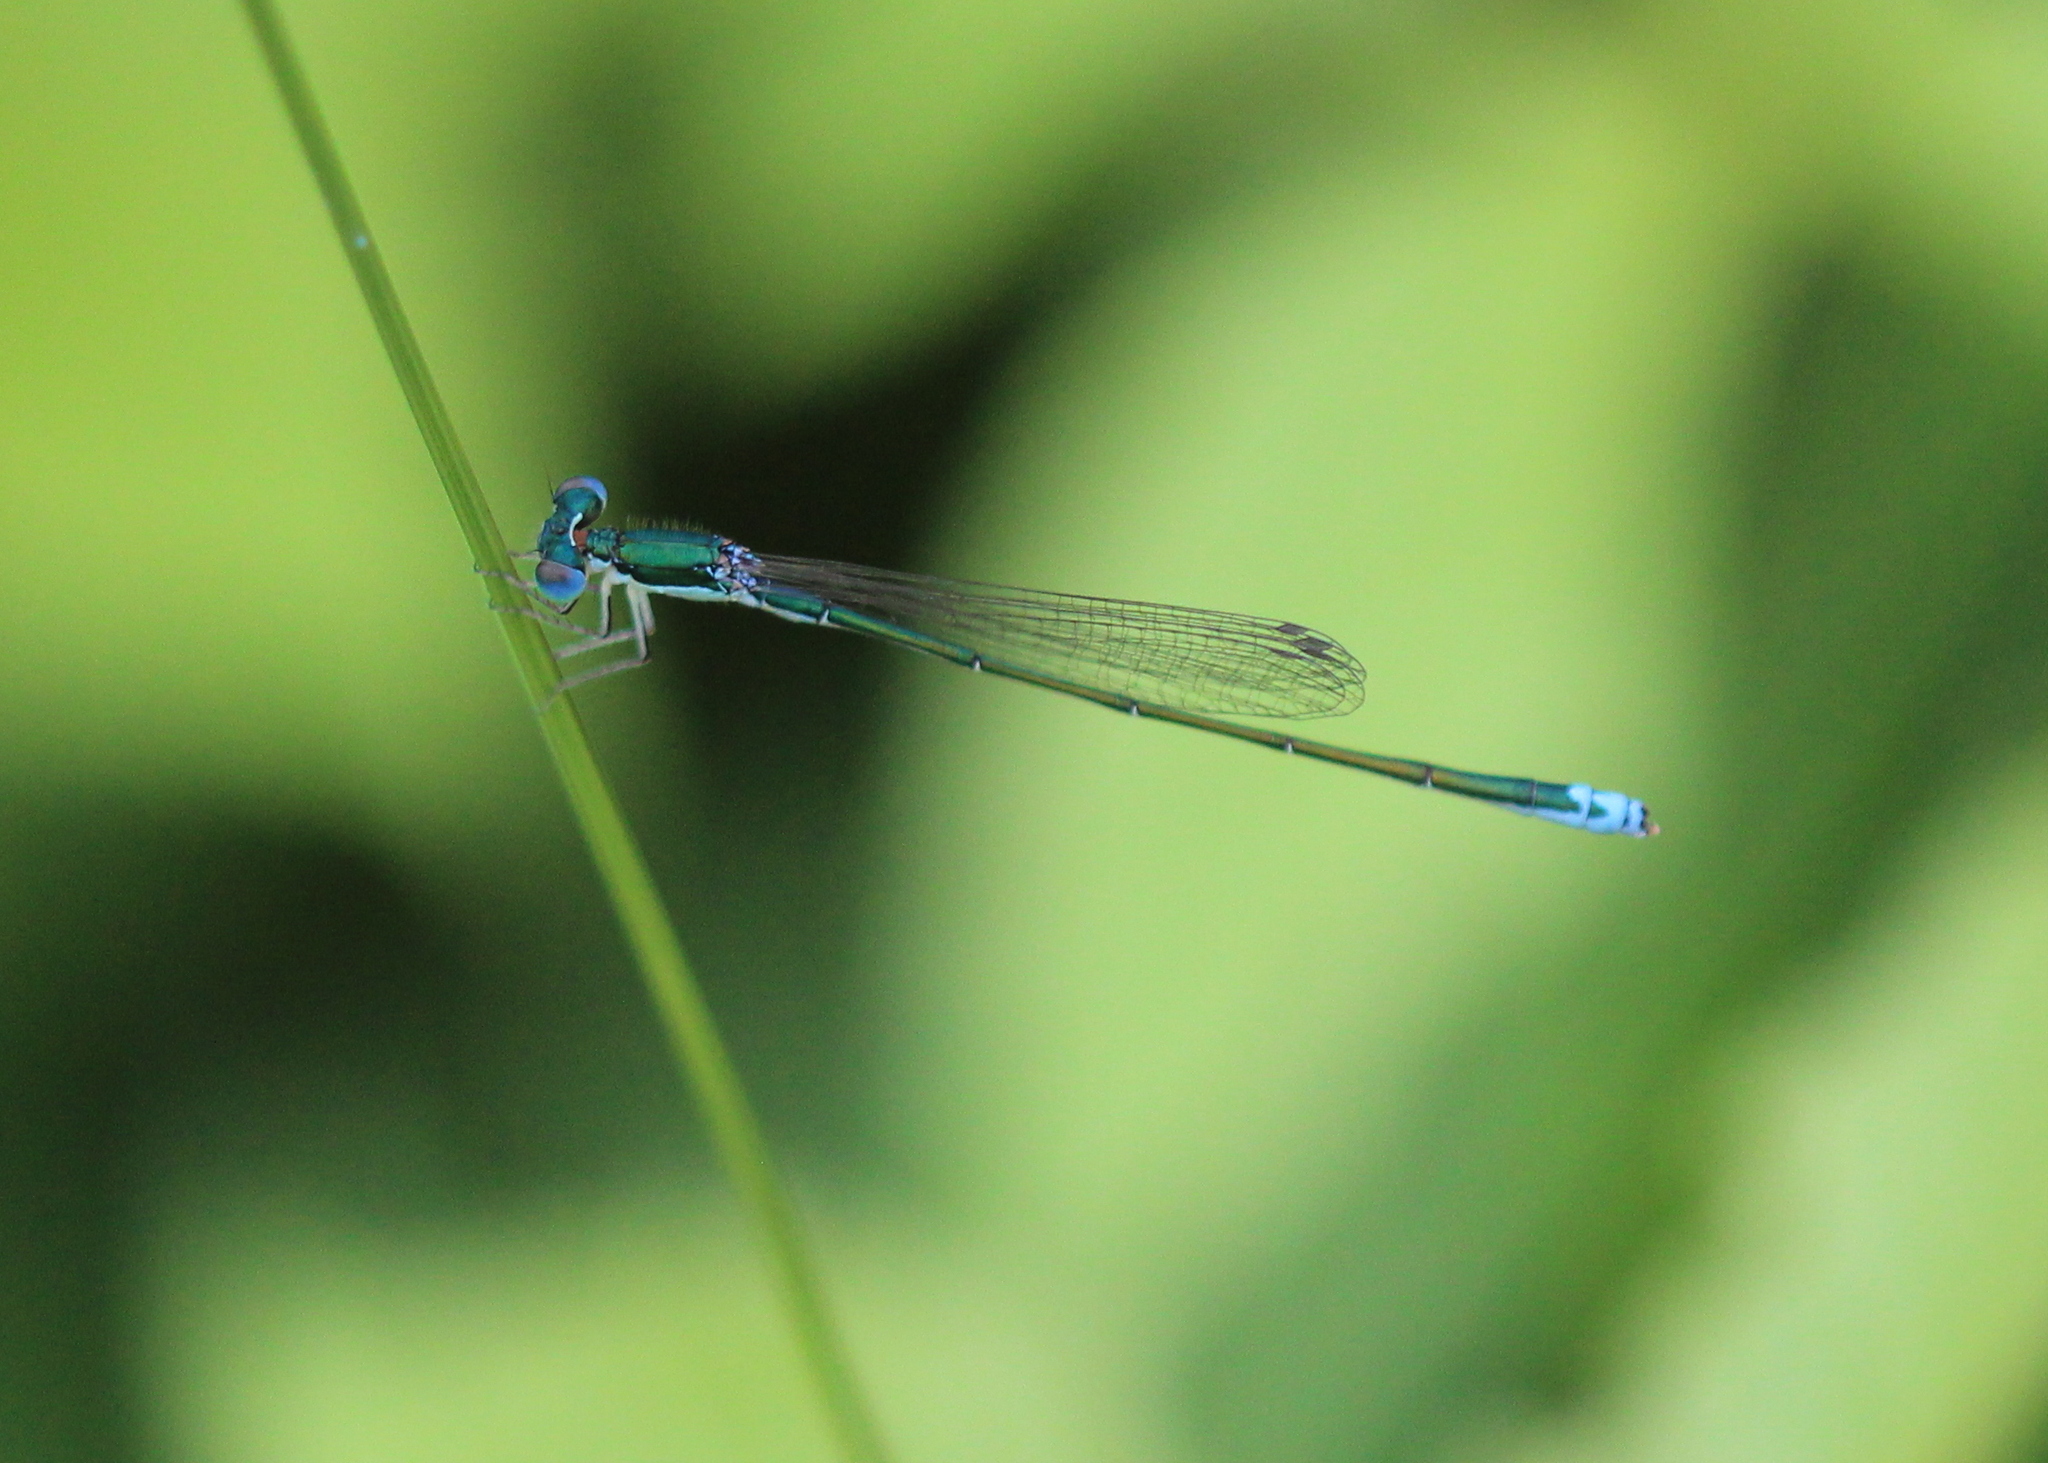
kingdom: Animalia
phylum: Arthropoda
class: Insecta
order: Odonata
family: Coenagrionidae
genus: Nehalennia
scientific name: Nehalennia irene
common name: Sedge sprite
